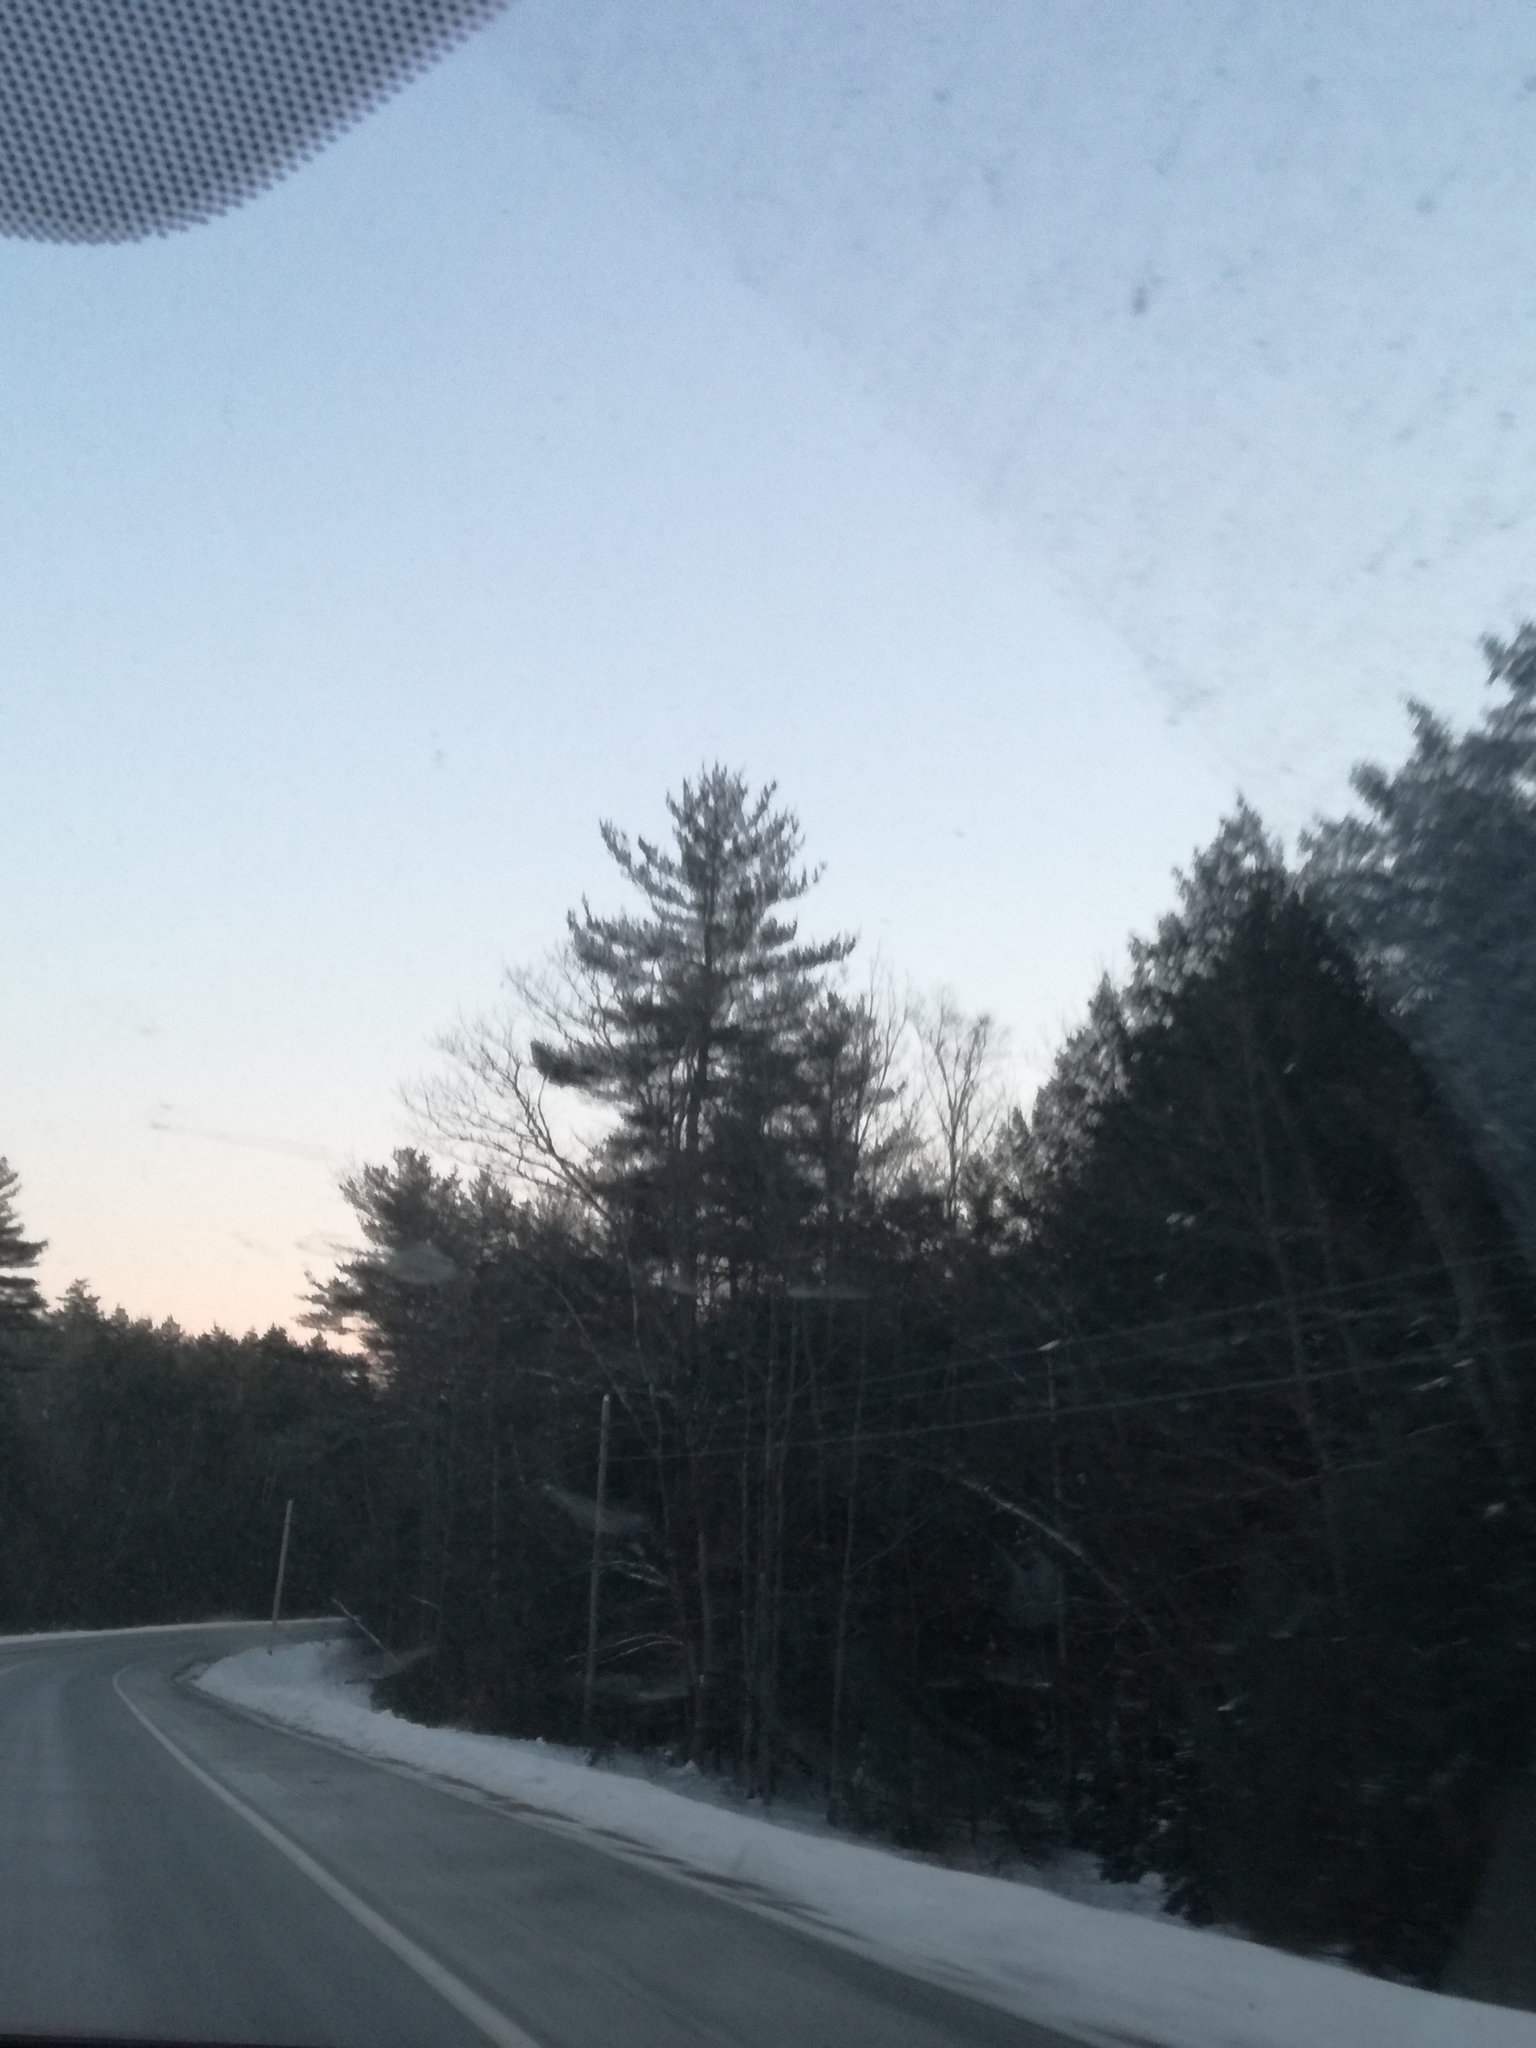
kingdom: Plantae
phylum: Tracheophyta
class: Pinopsida
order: Pinales
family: Pinaceae
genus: Pinus
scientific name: Pinus strobus
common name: Weymouth pine
